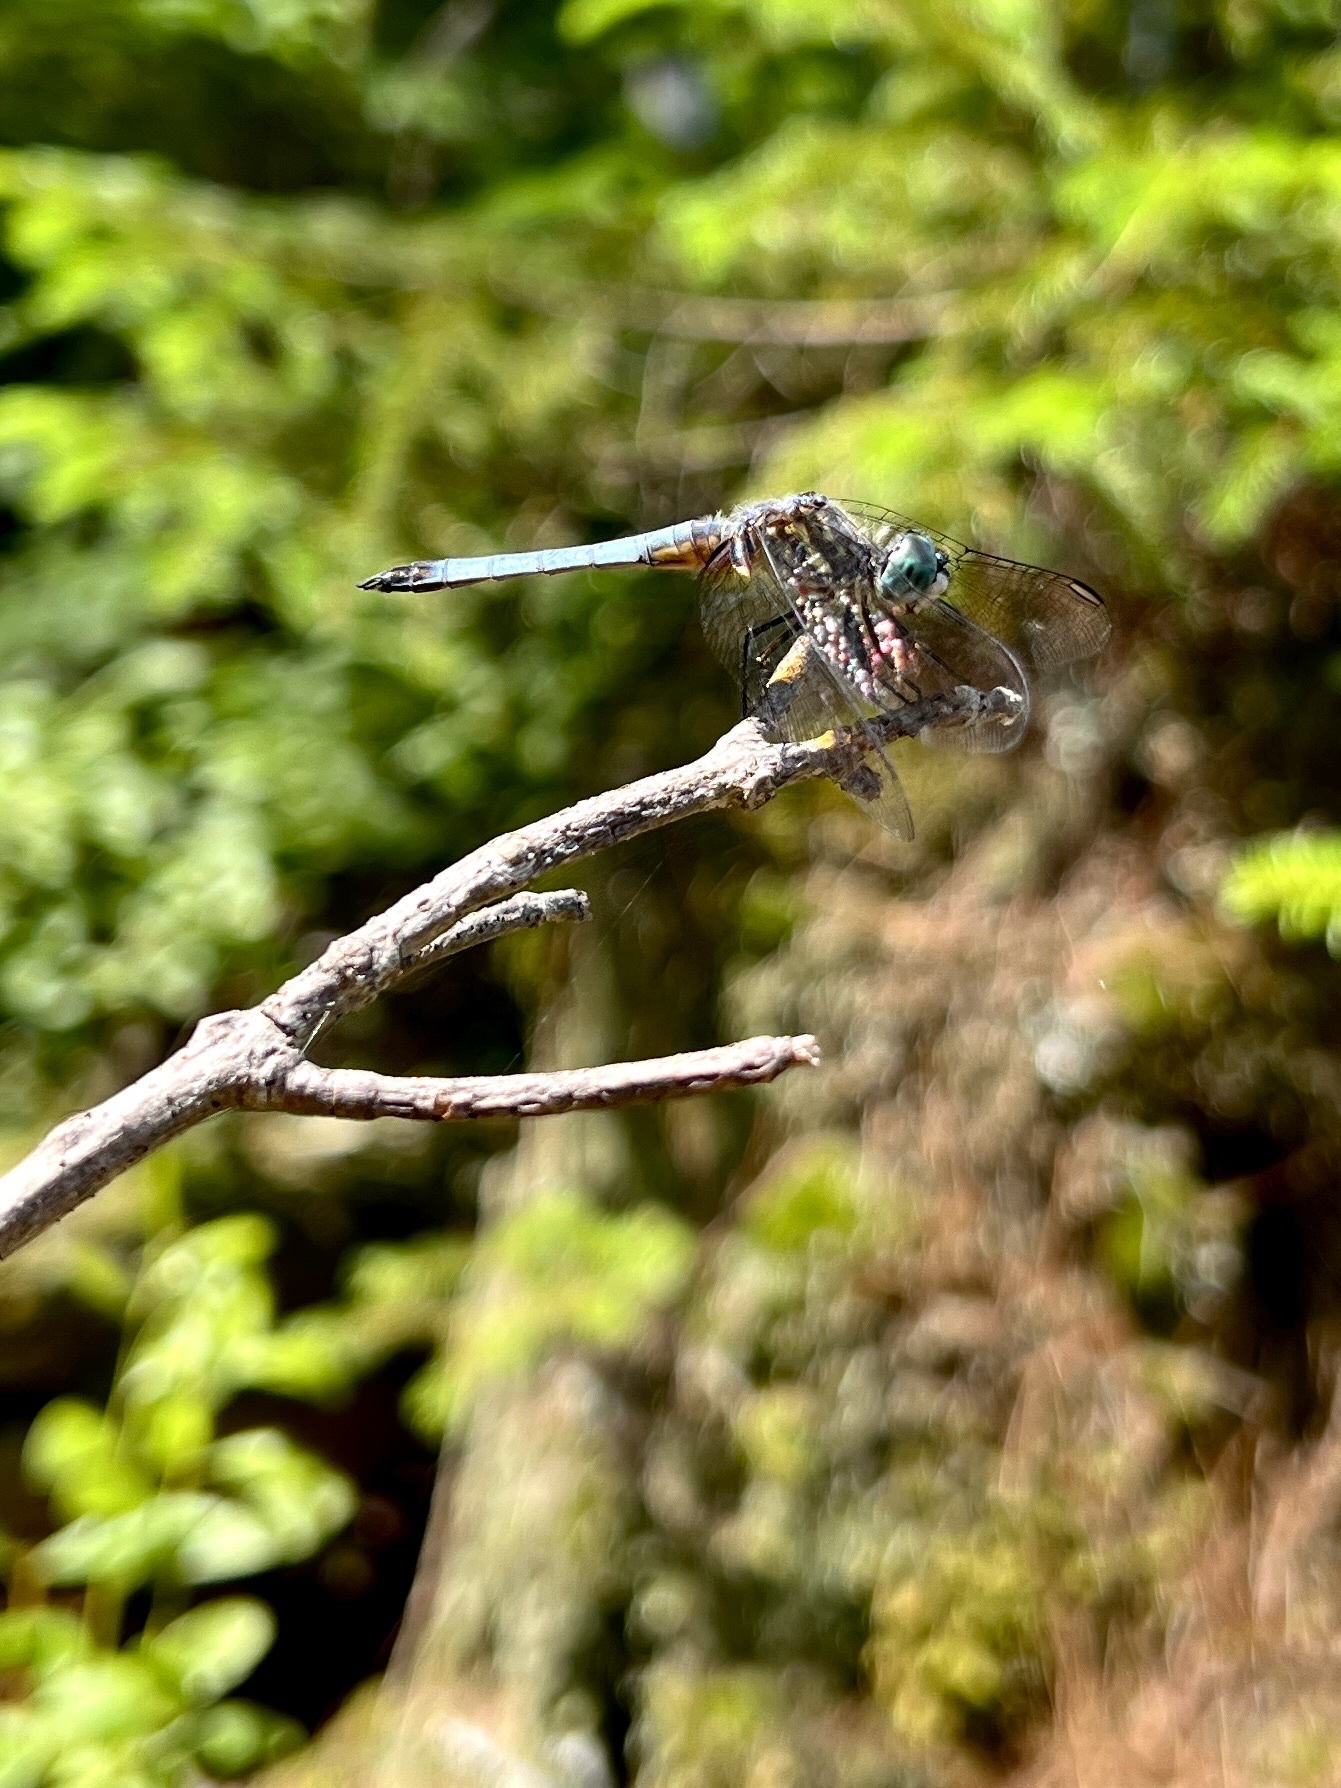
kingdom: Animalia
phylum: Arthropoda
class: Insecta
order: Odonata
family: Libellulidae
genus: Pachydiplax
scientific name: Pachydiplax longipennis
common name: Blue dasher
